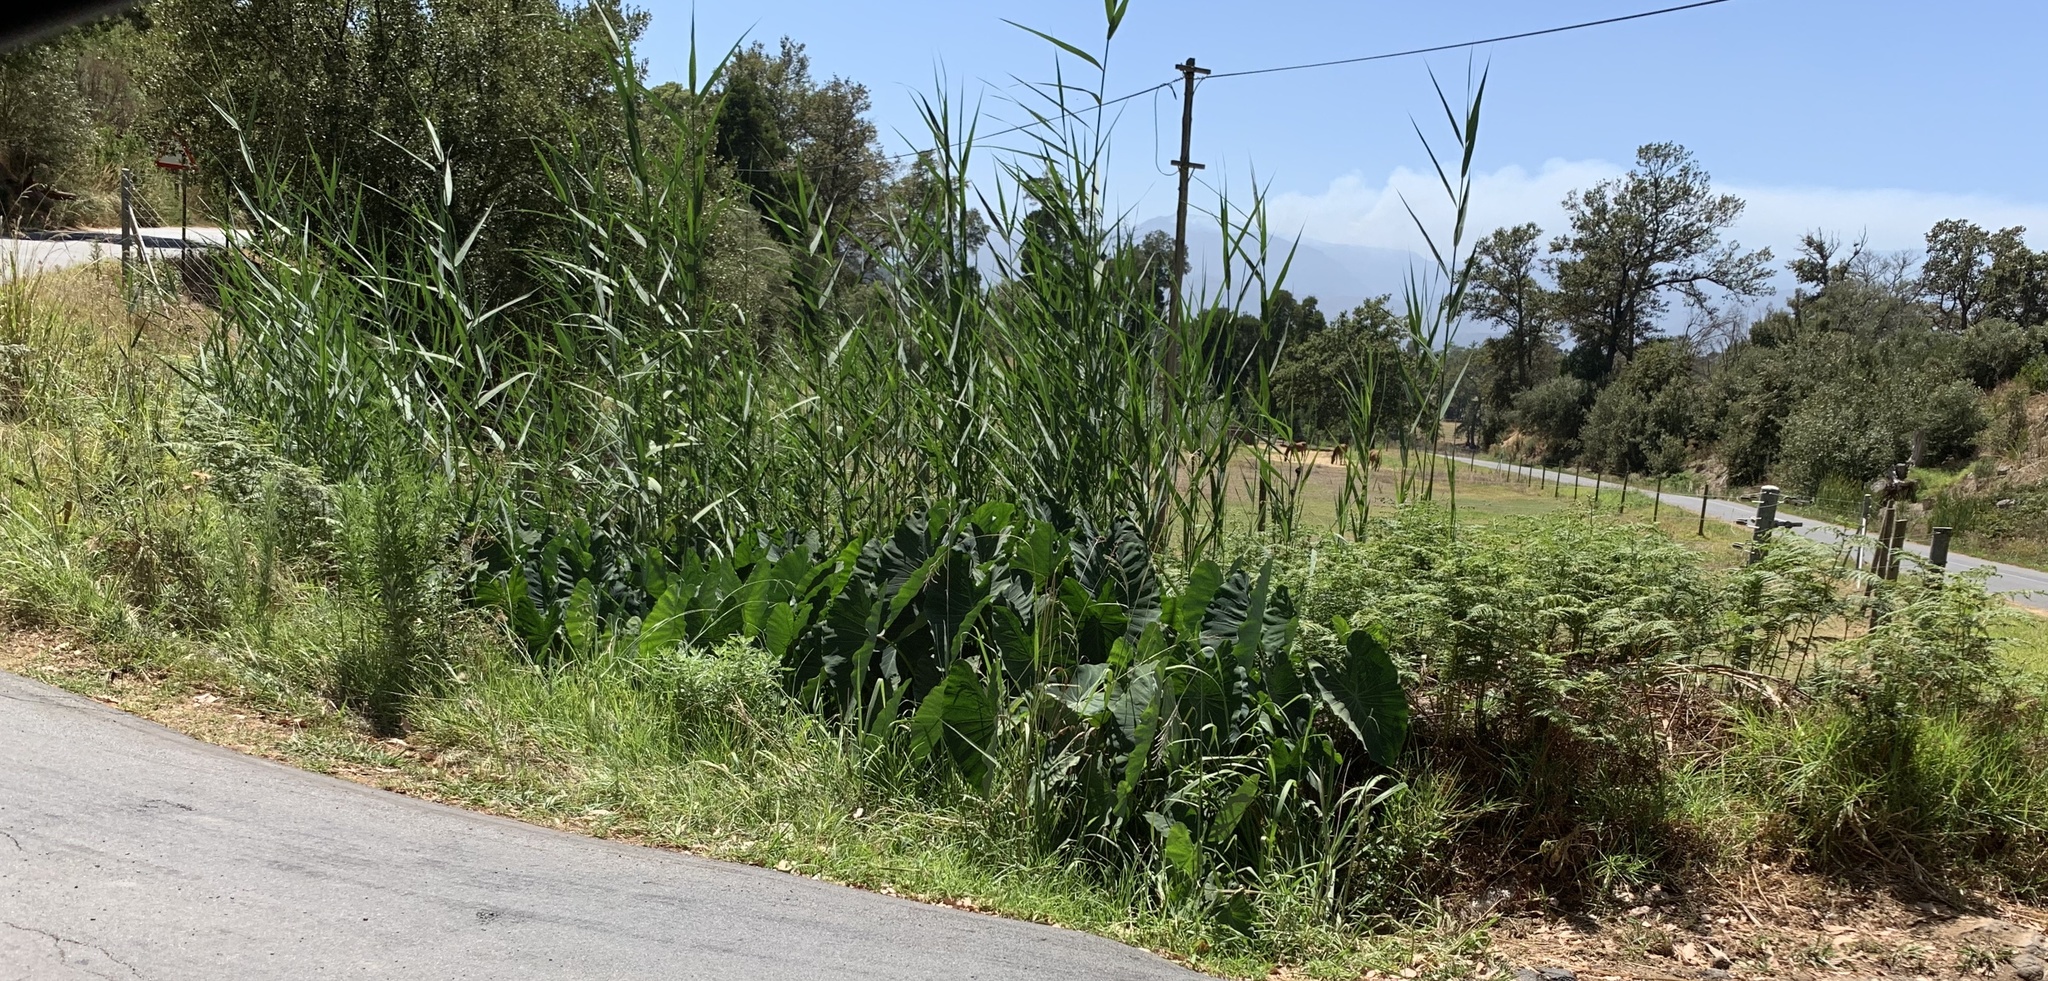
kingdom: Plantae
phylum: Tracheophyta
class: Liliopsida
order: Alismatales
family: Araceae
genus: Colocasia
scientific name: Colocasia esculenta
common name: Taro
